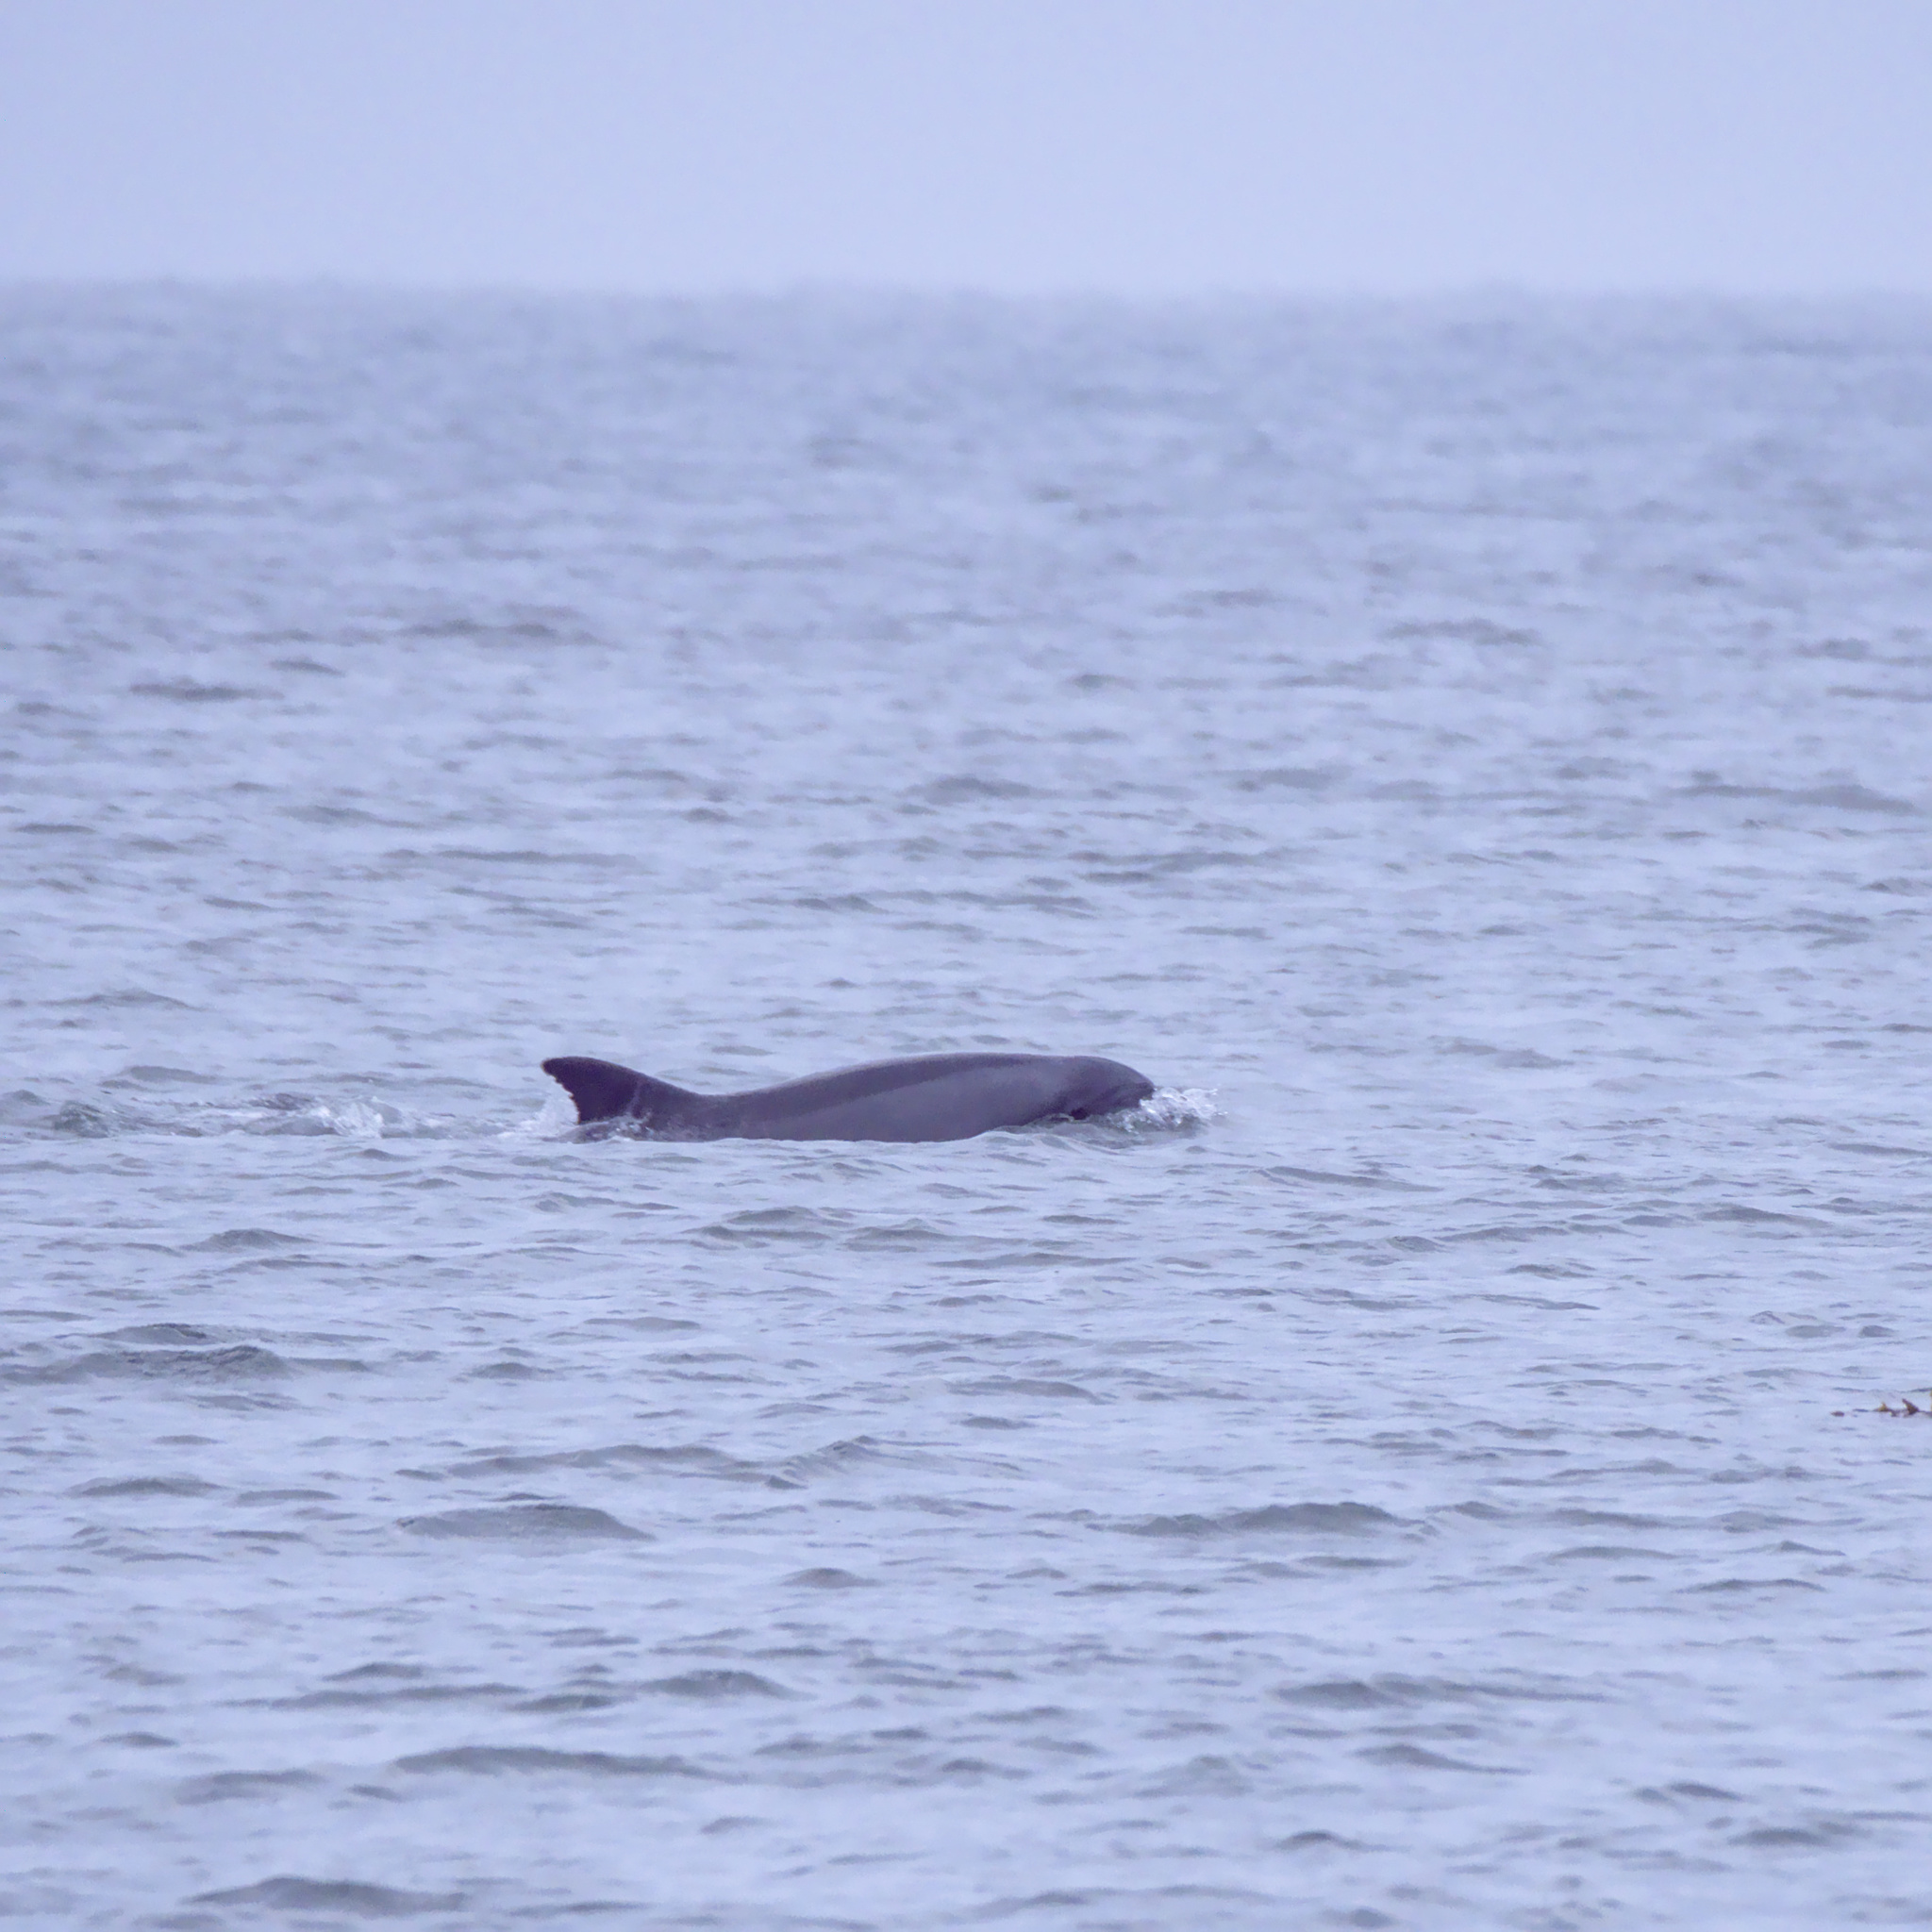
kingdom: Animalia
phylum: Chordata
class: Mammalia
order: Cetacea
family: Delphinidae
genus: Tursiops
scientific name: Tursiops truncatus
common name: Bottlenose dolphin
